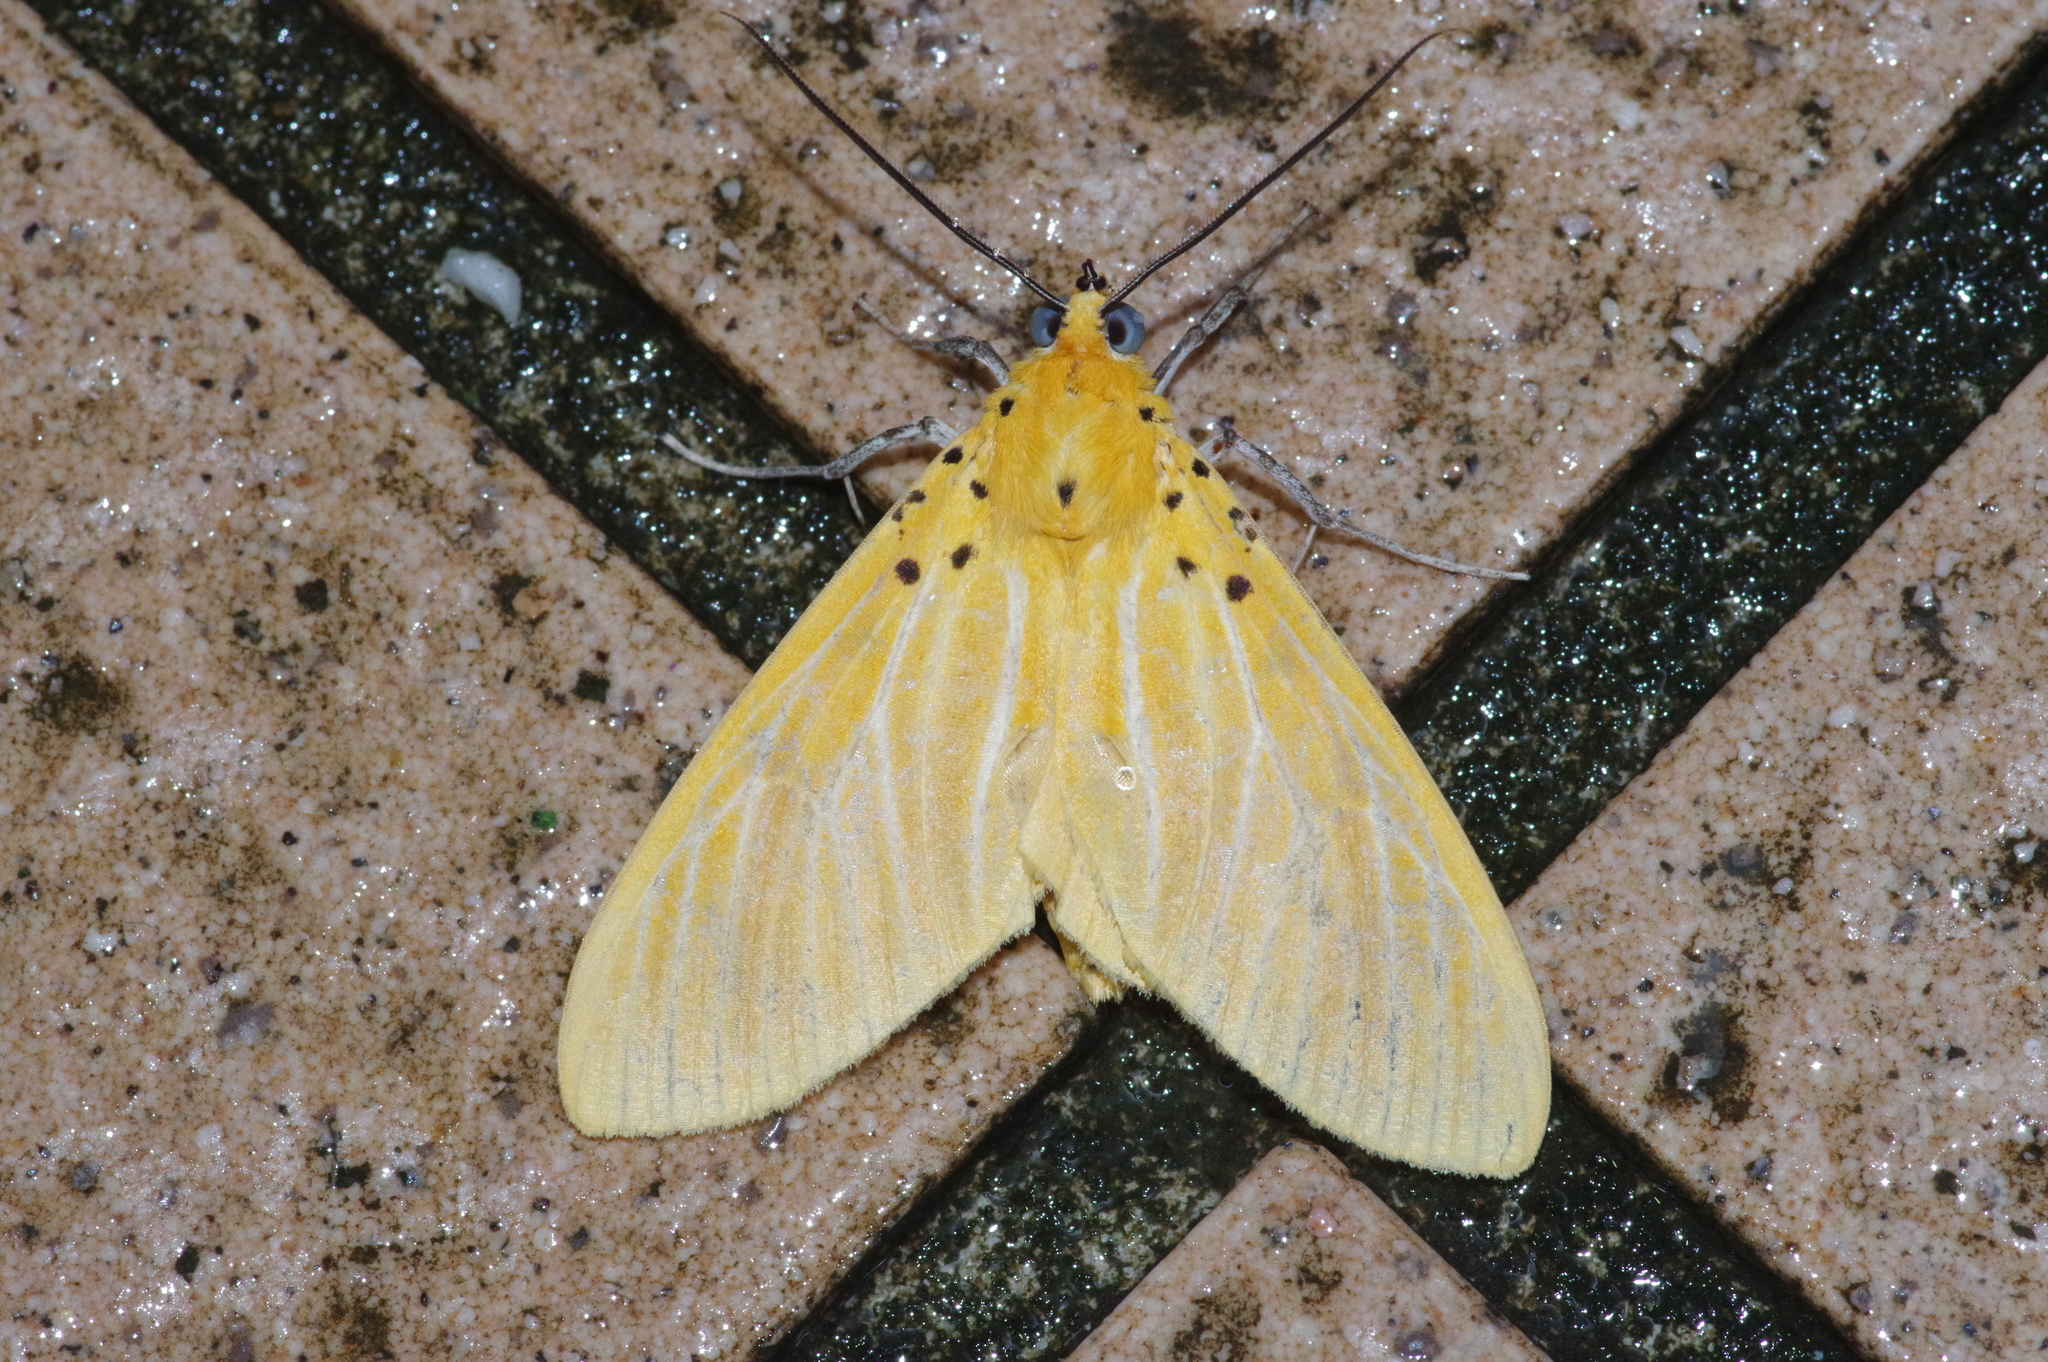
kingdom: Animalia
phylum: Arthropoda
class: Insecta
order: Lepidoptera
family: Erebidae
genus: Asota
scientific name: Asota egens
